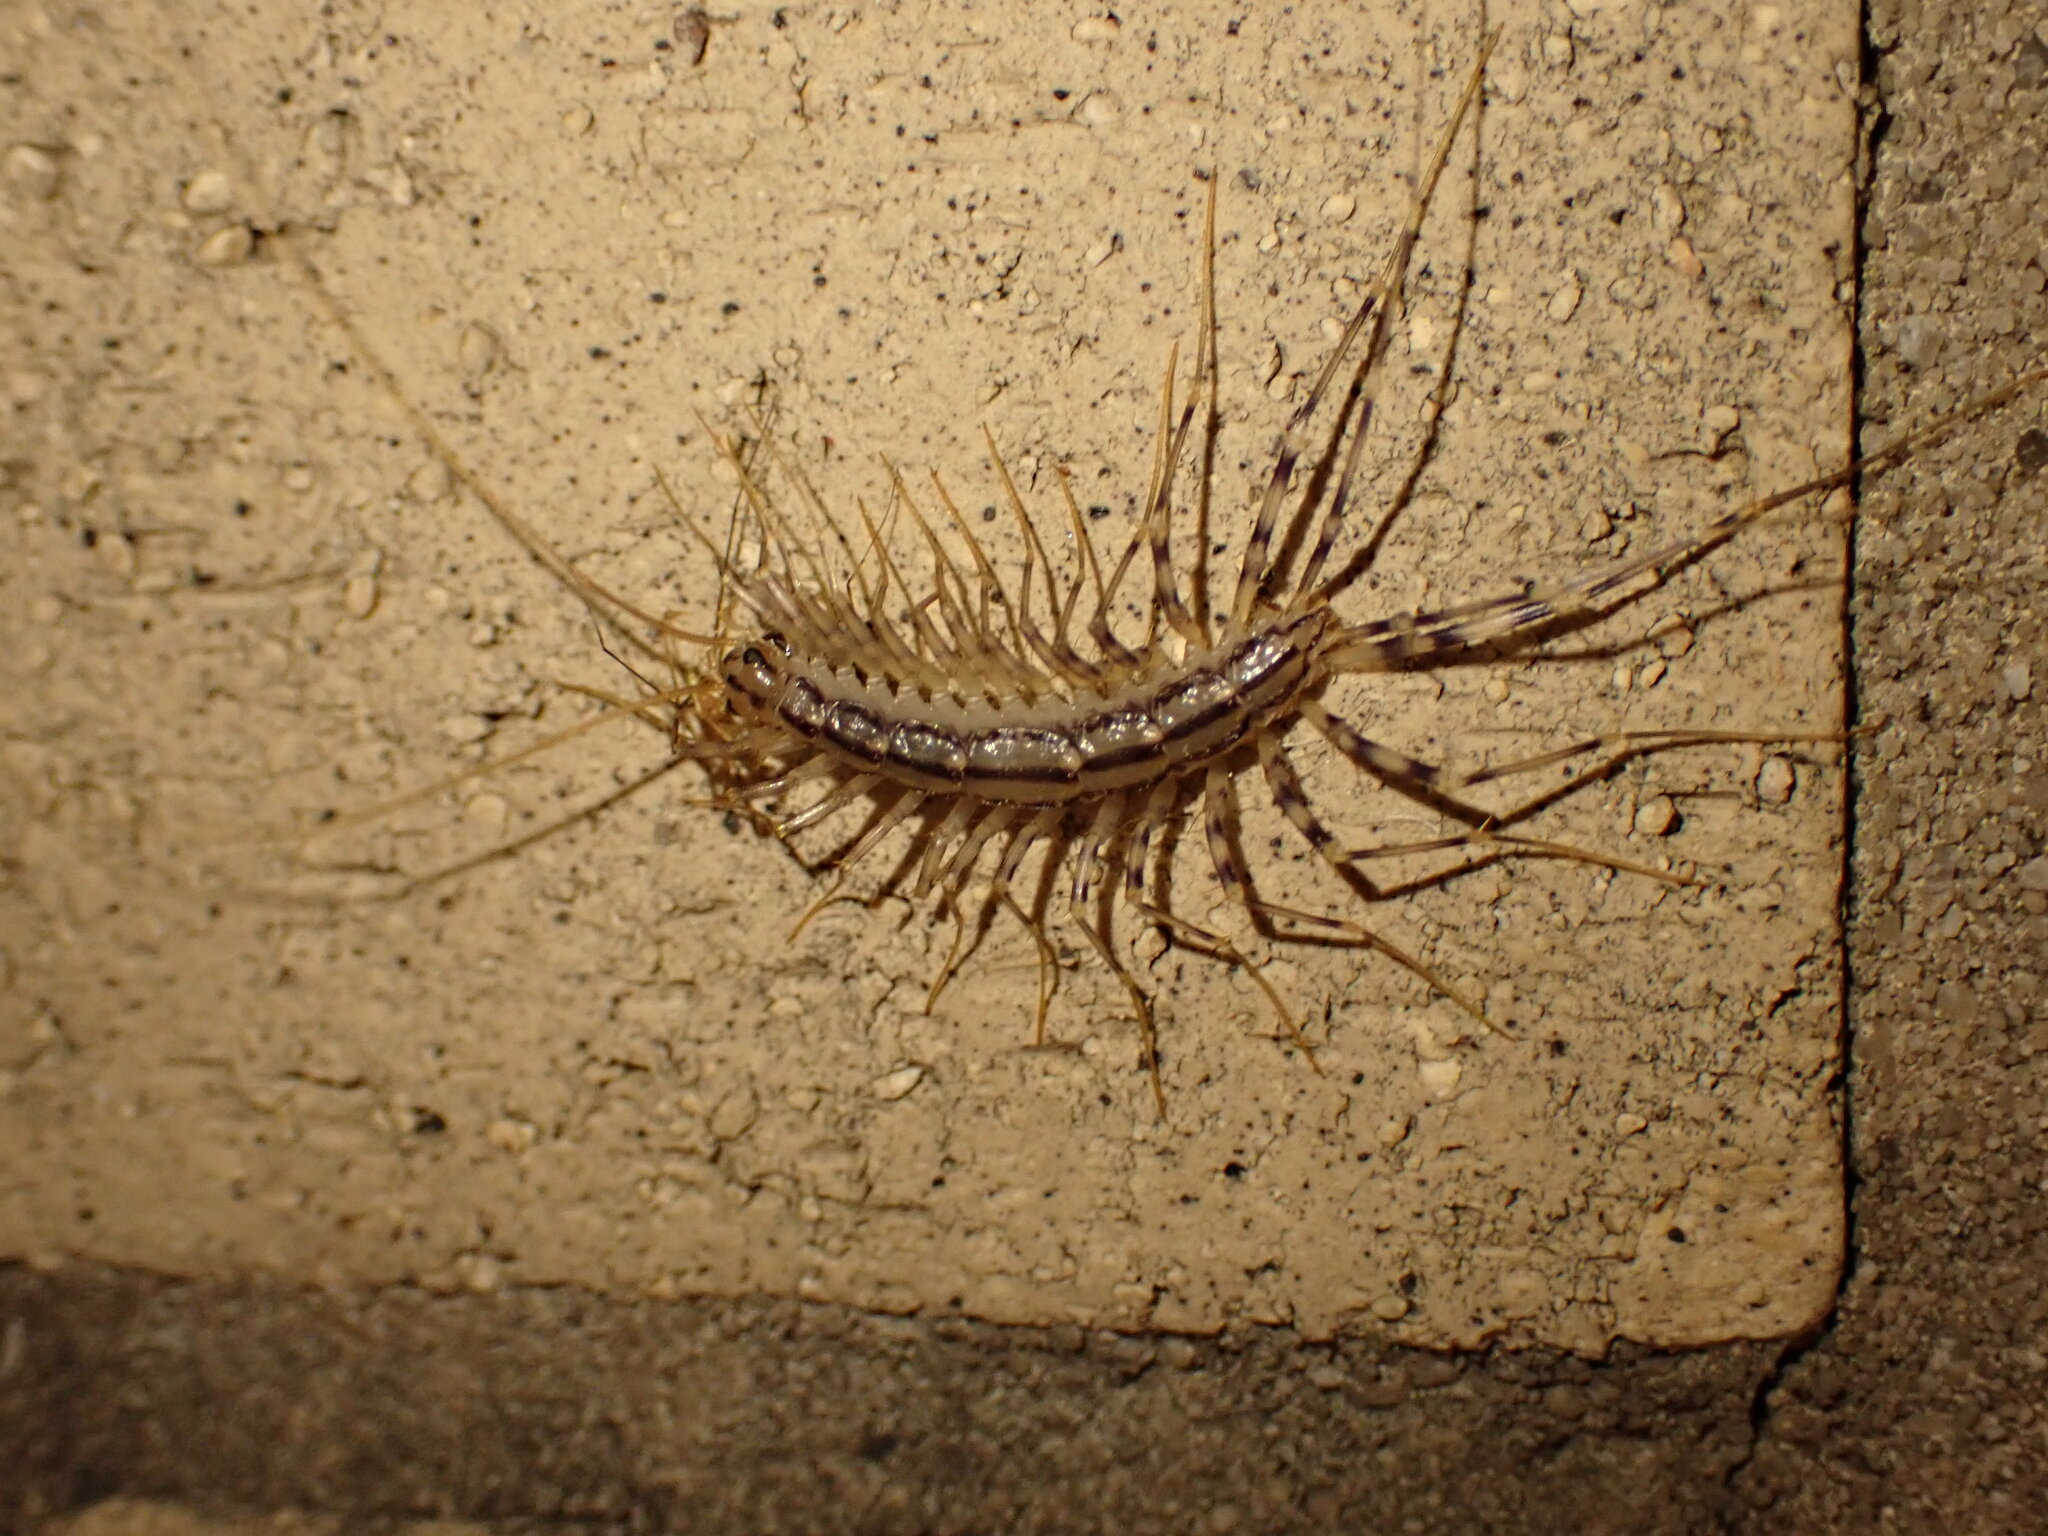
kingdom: Animalia
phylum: Arthropoda
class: Chilopoda
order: Scutigeromorpha
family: Scutigeridae
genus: Scutigera
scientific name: Scutigera coleoptrata
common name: House centipede
